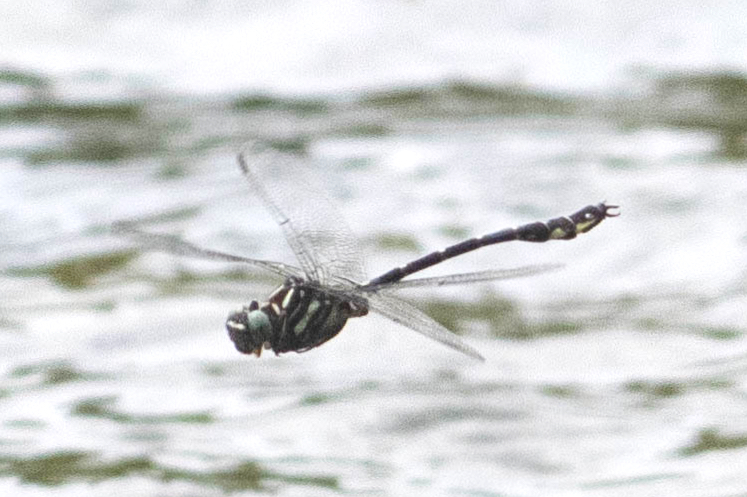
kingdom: Animalia
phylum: Arthropoda
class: Insecta
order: Odonata
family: Gomphidae
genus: Stylurus
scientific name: Stylurus spiniceps
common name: Arrow clubtail
